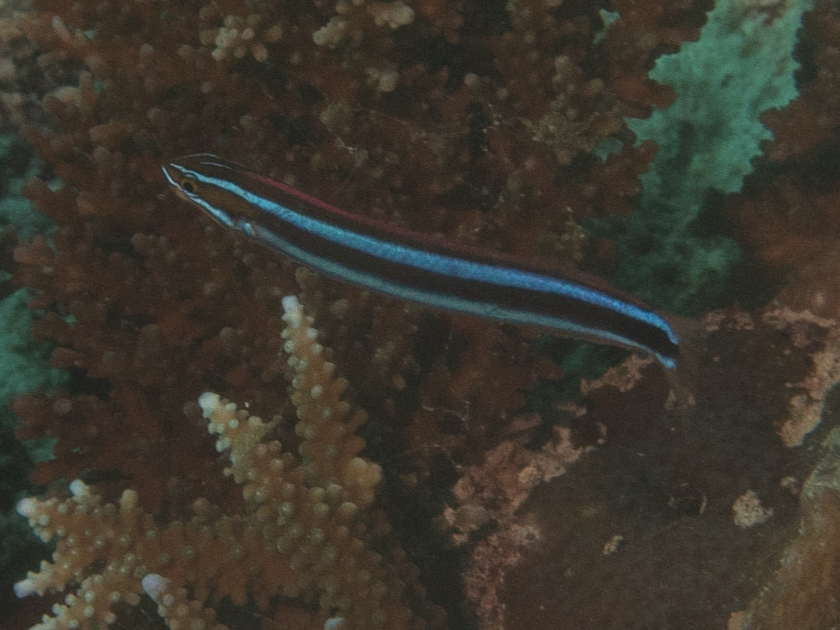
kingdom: Animalia
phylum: Chordata
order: Perciformes
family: Blenniidae
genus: Plagiotremus
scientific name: Plagiotremus rhinorhynchos
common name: Bluestriped fangblenny
